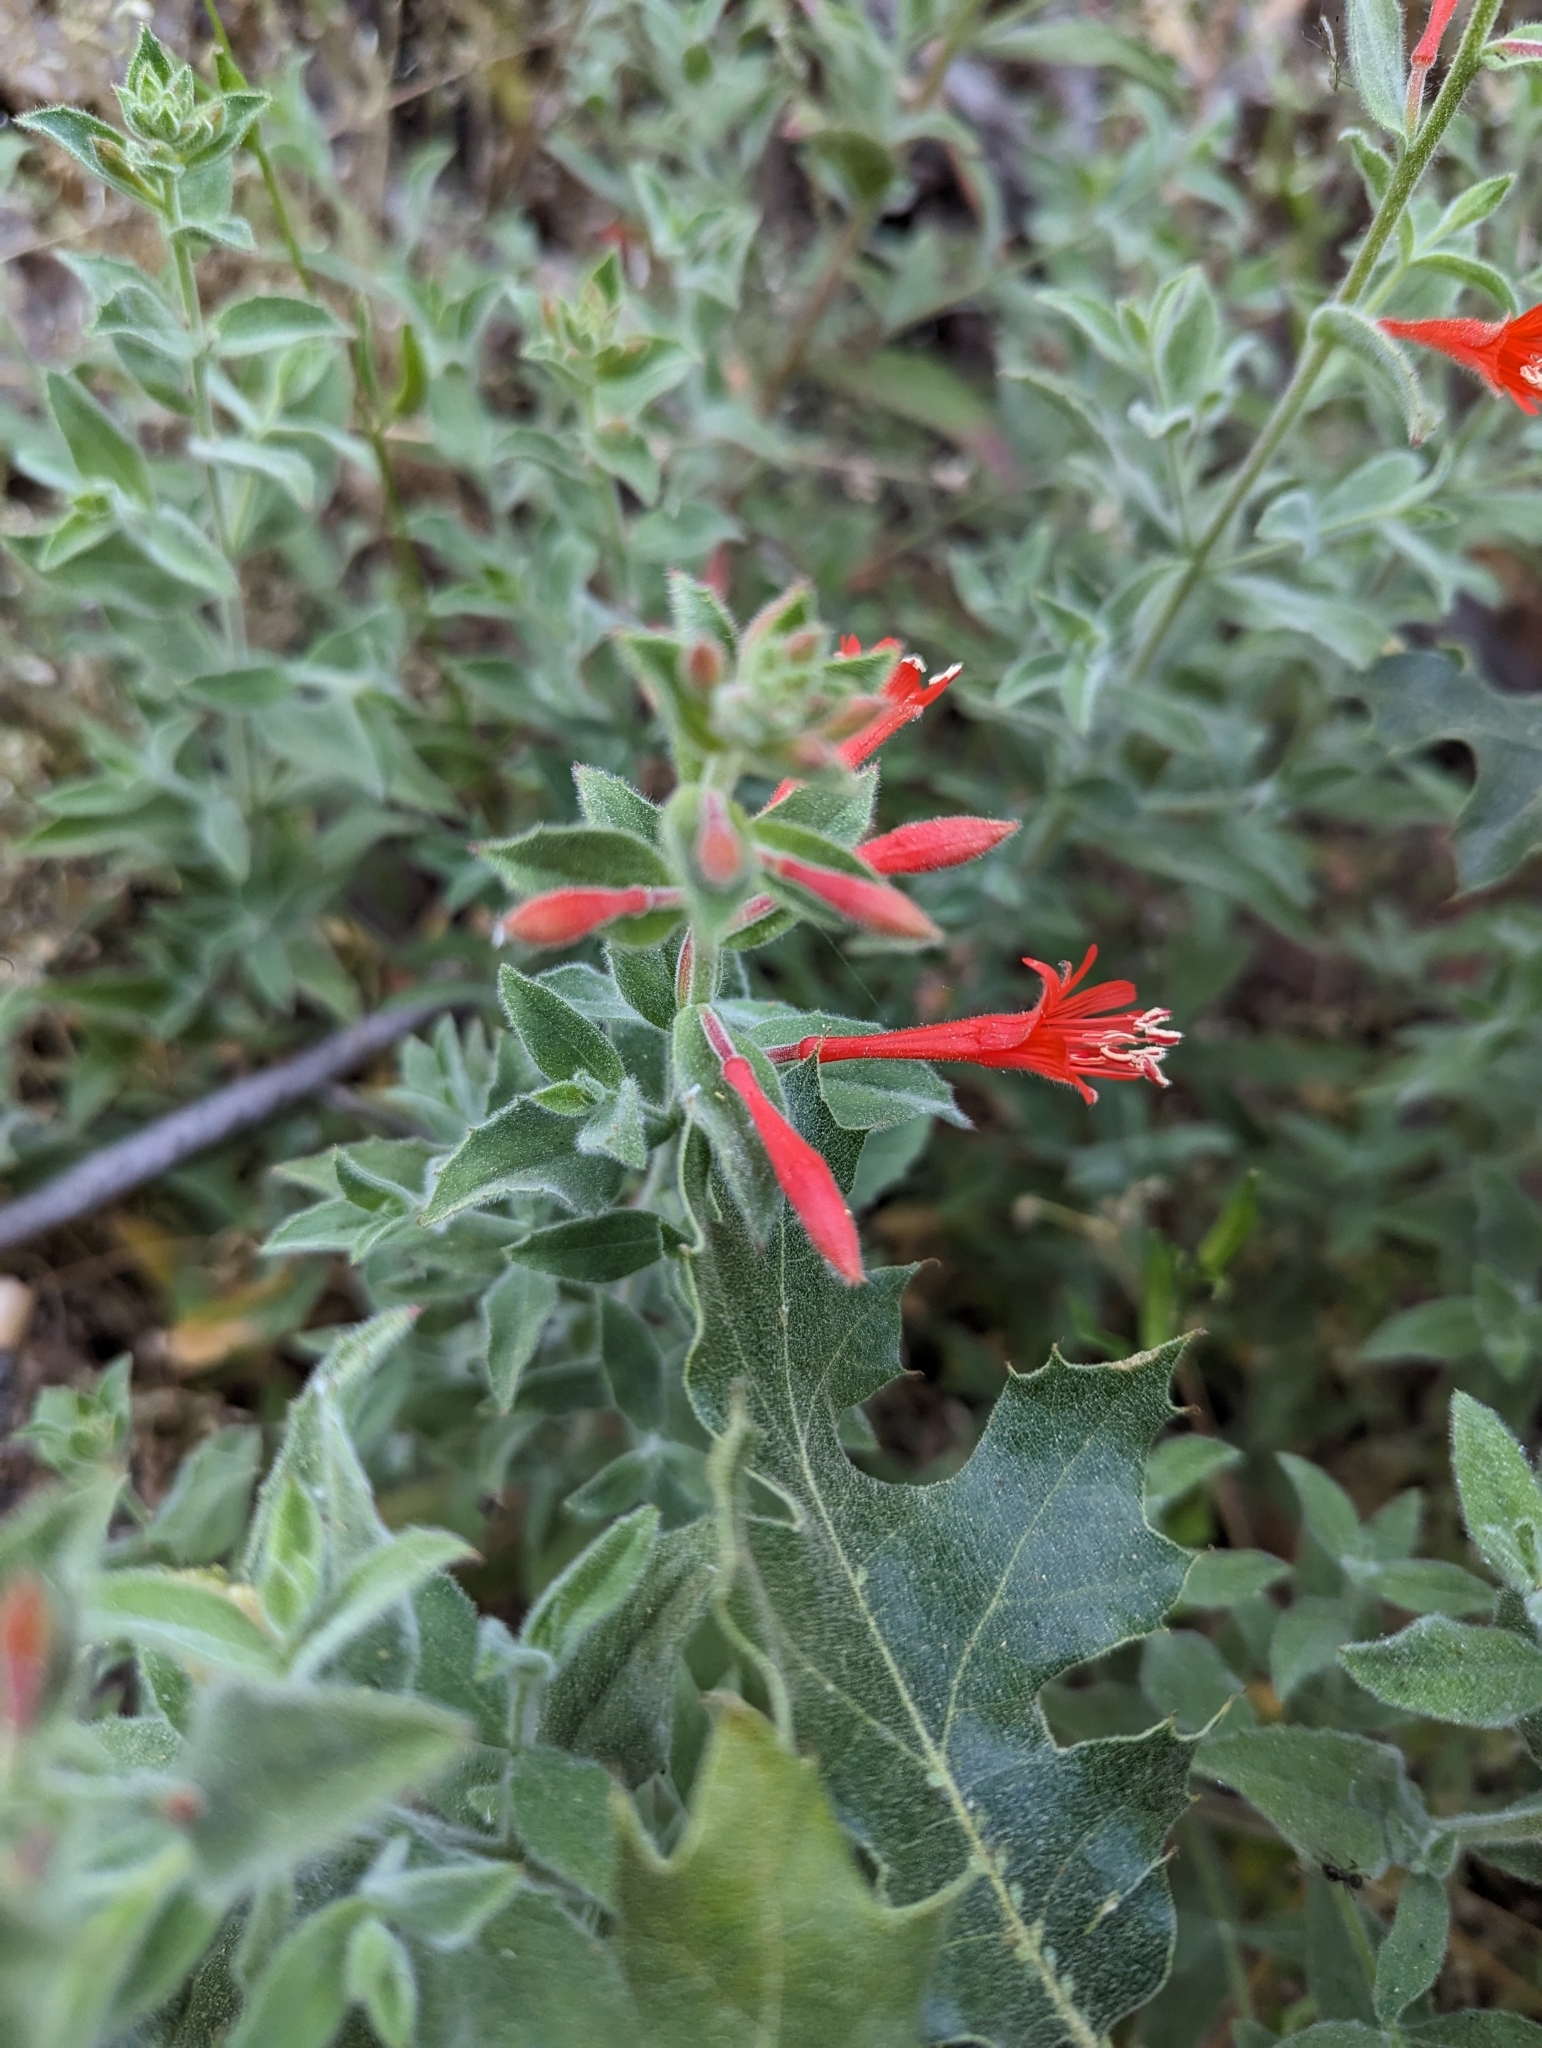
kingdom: Plantae
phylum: Tracheophyta
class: Magnoliopsida
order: Myrtales
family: Onagraceae
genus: Epilobium
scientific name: Epilobium canum
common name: California-fuchsia
